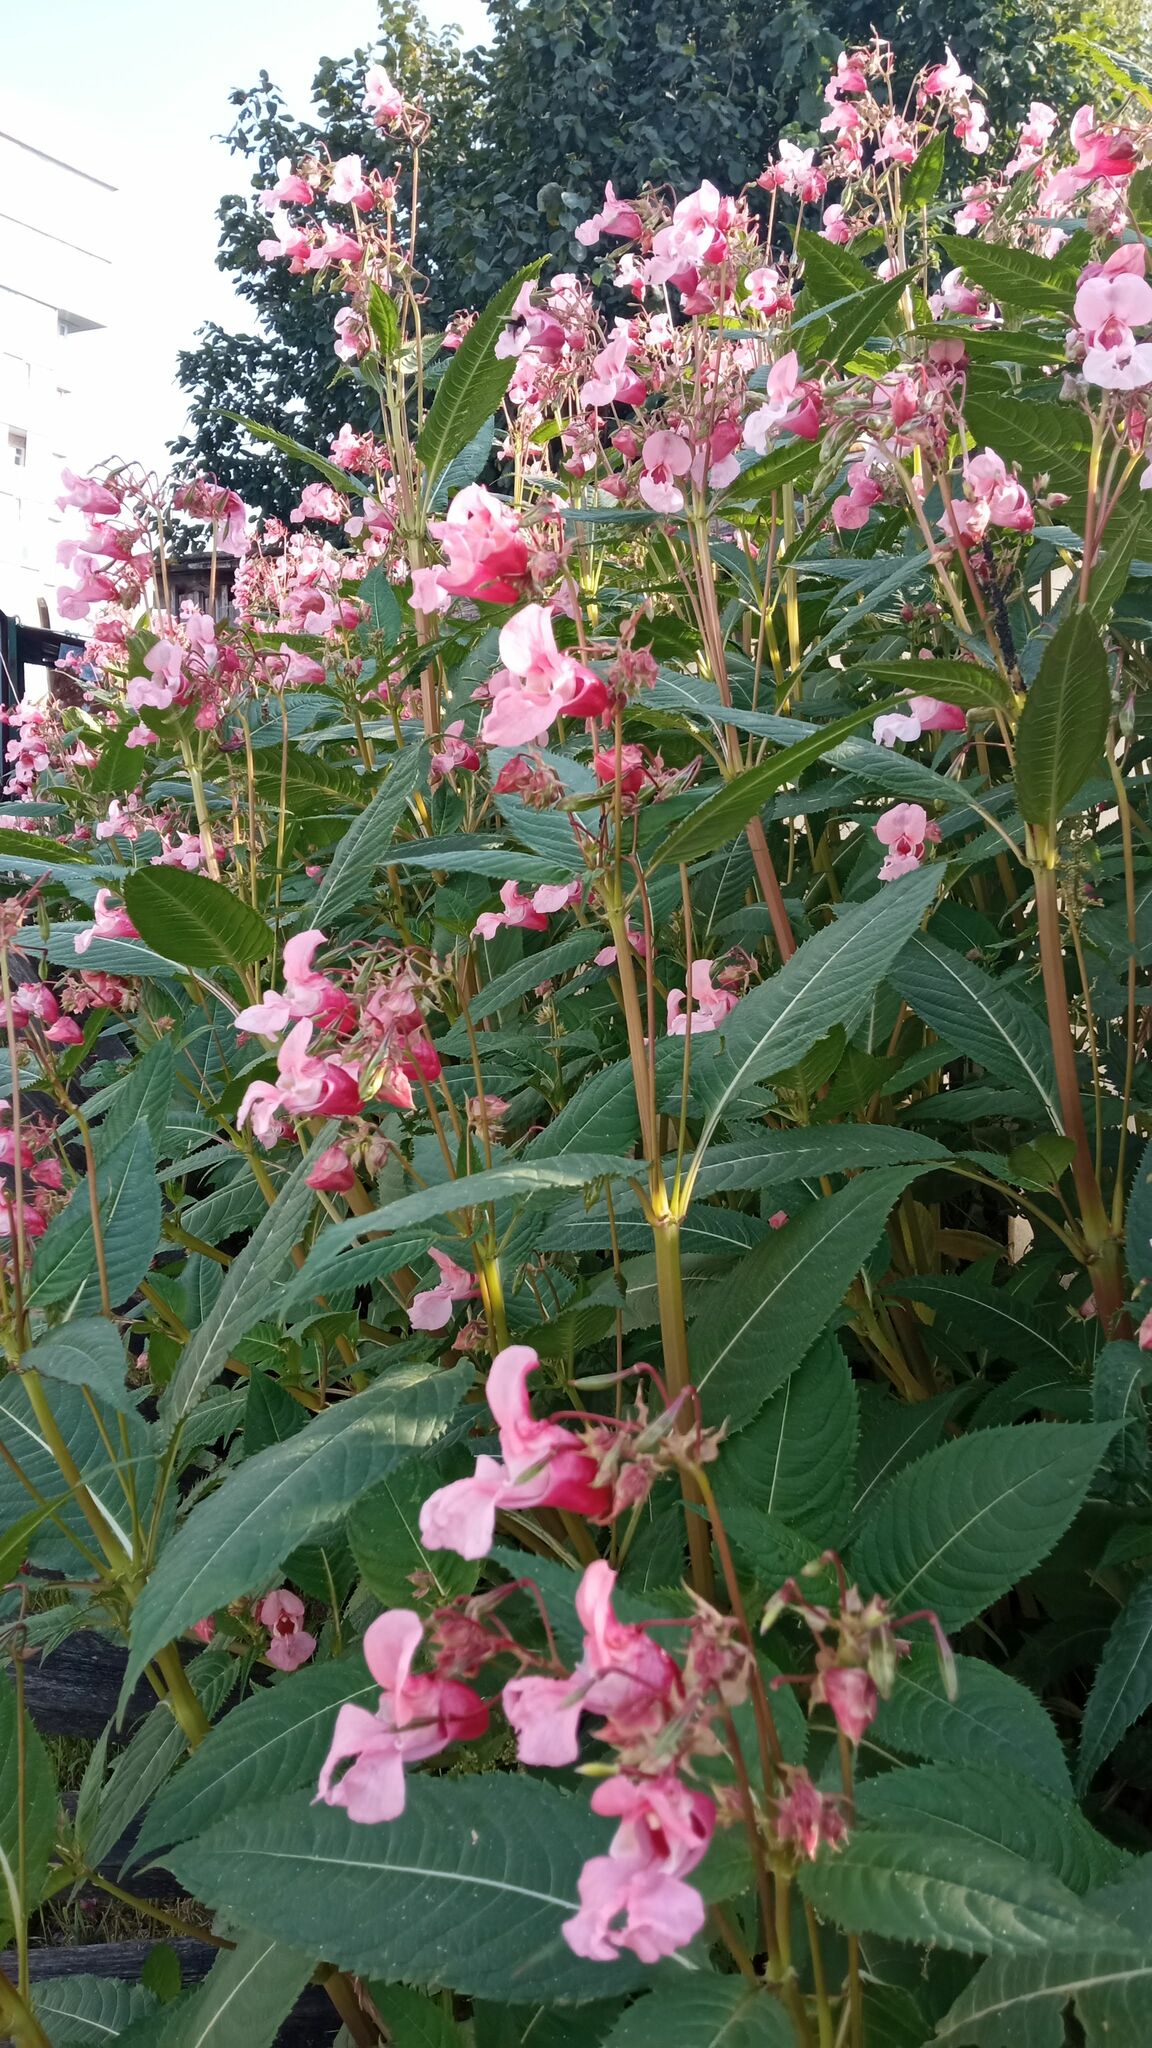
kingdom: Plantae
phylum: Tracheophyta
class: Magnoliopsida
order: Ericales
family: Balsaminaceae
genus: Impatiens
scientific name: Impatiens glandulifera
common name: Himalayan balsam
